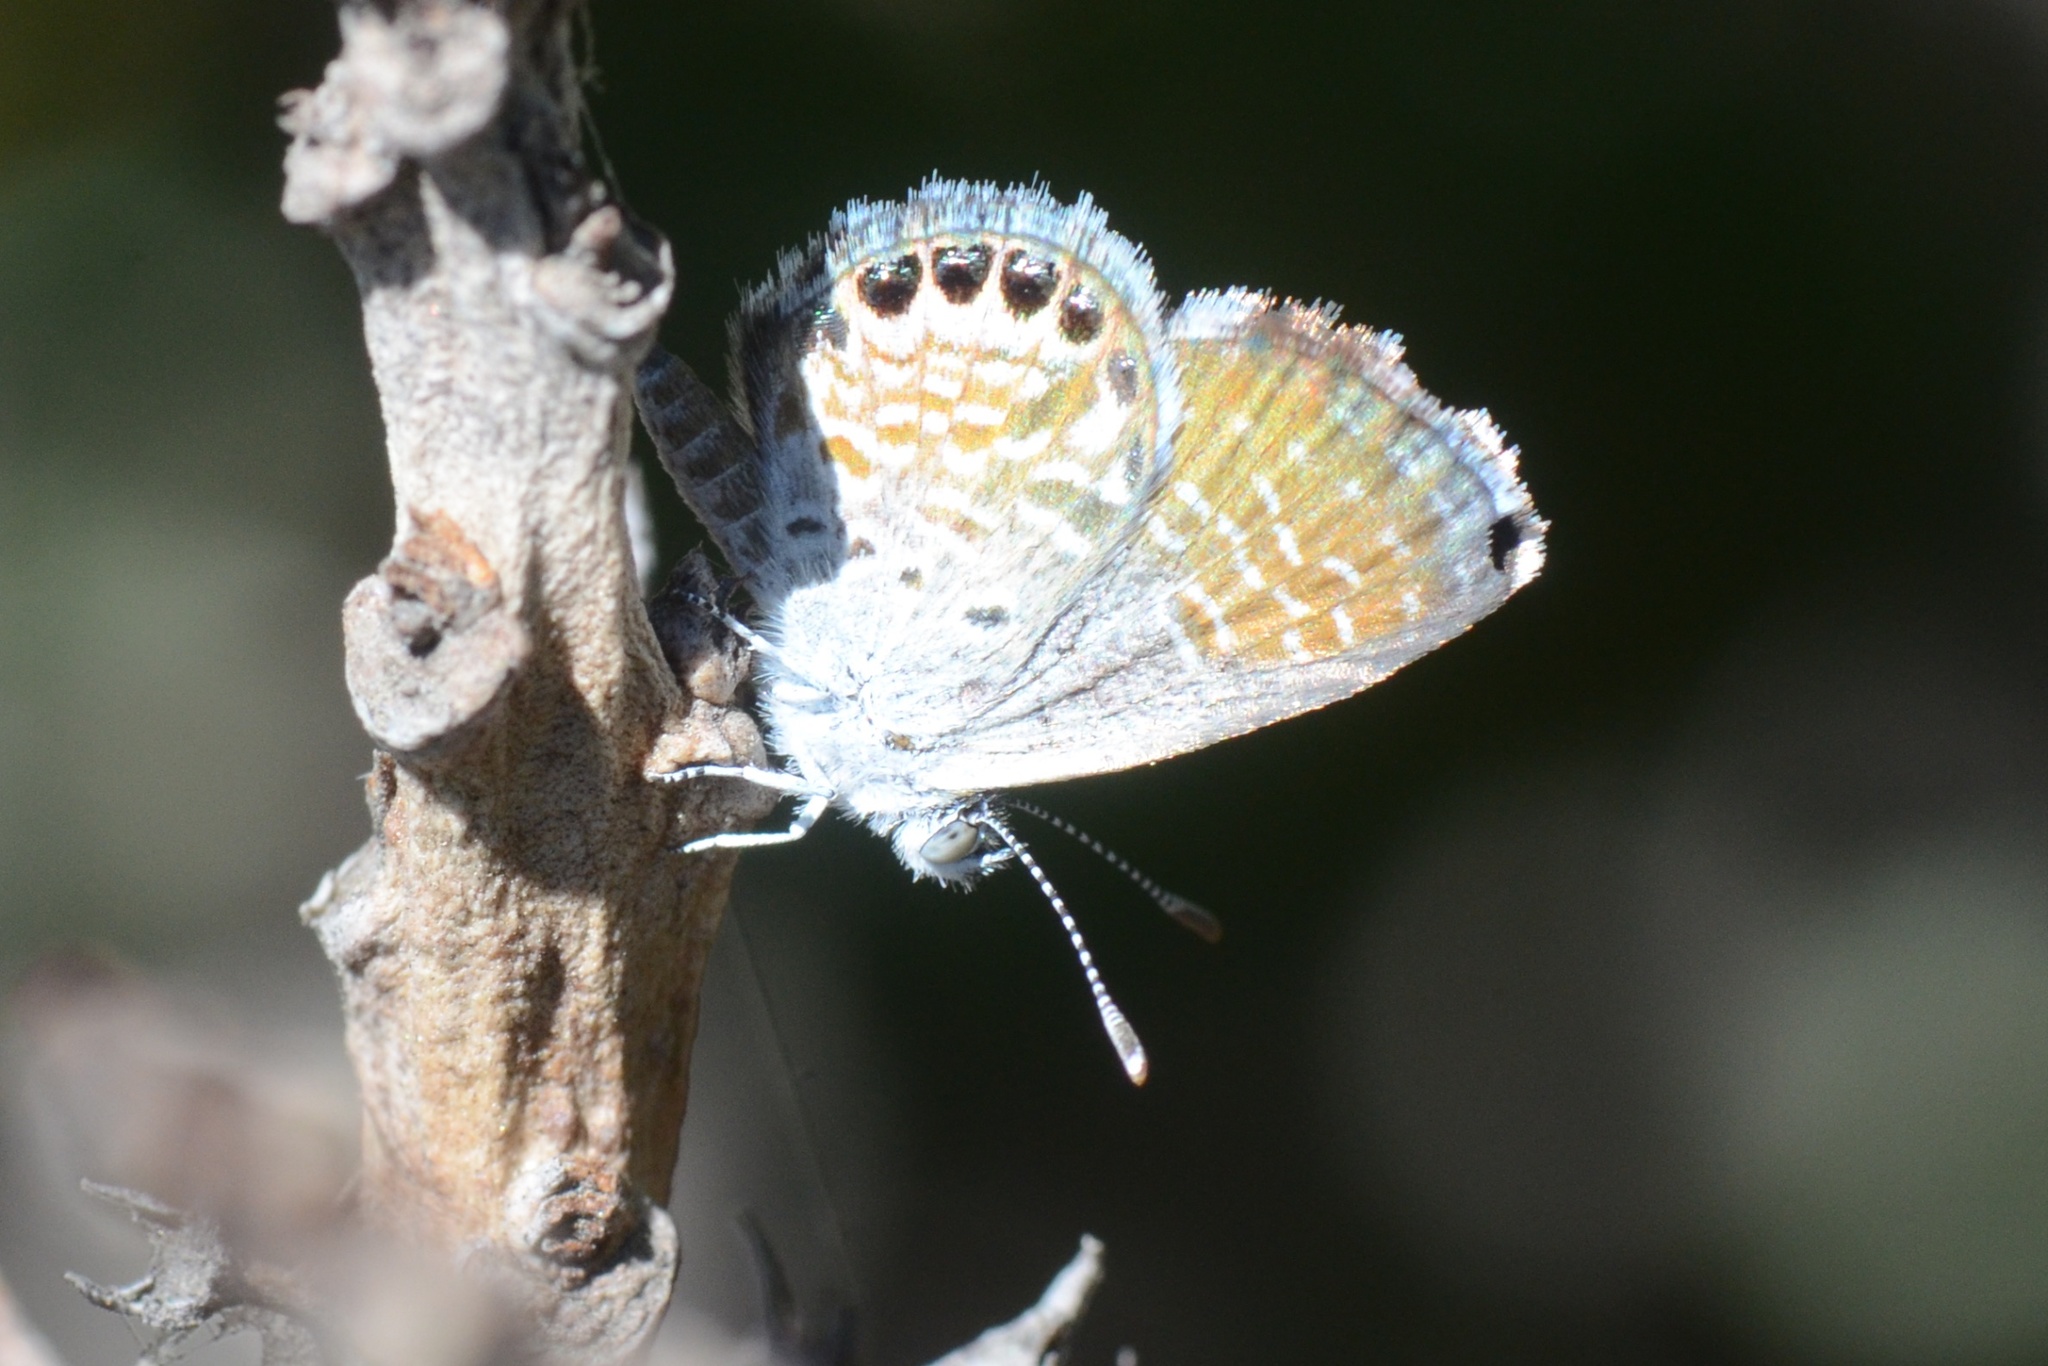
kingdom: Animalia
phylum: Arthropoda
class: Insecta
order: Lepidoptera
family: Lycaenidae
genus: Brephidium
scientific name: Brephidium exilis
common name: Pygmy blue
